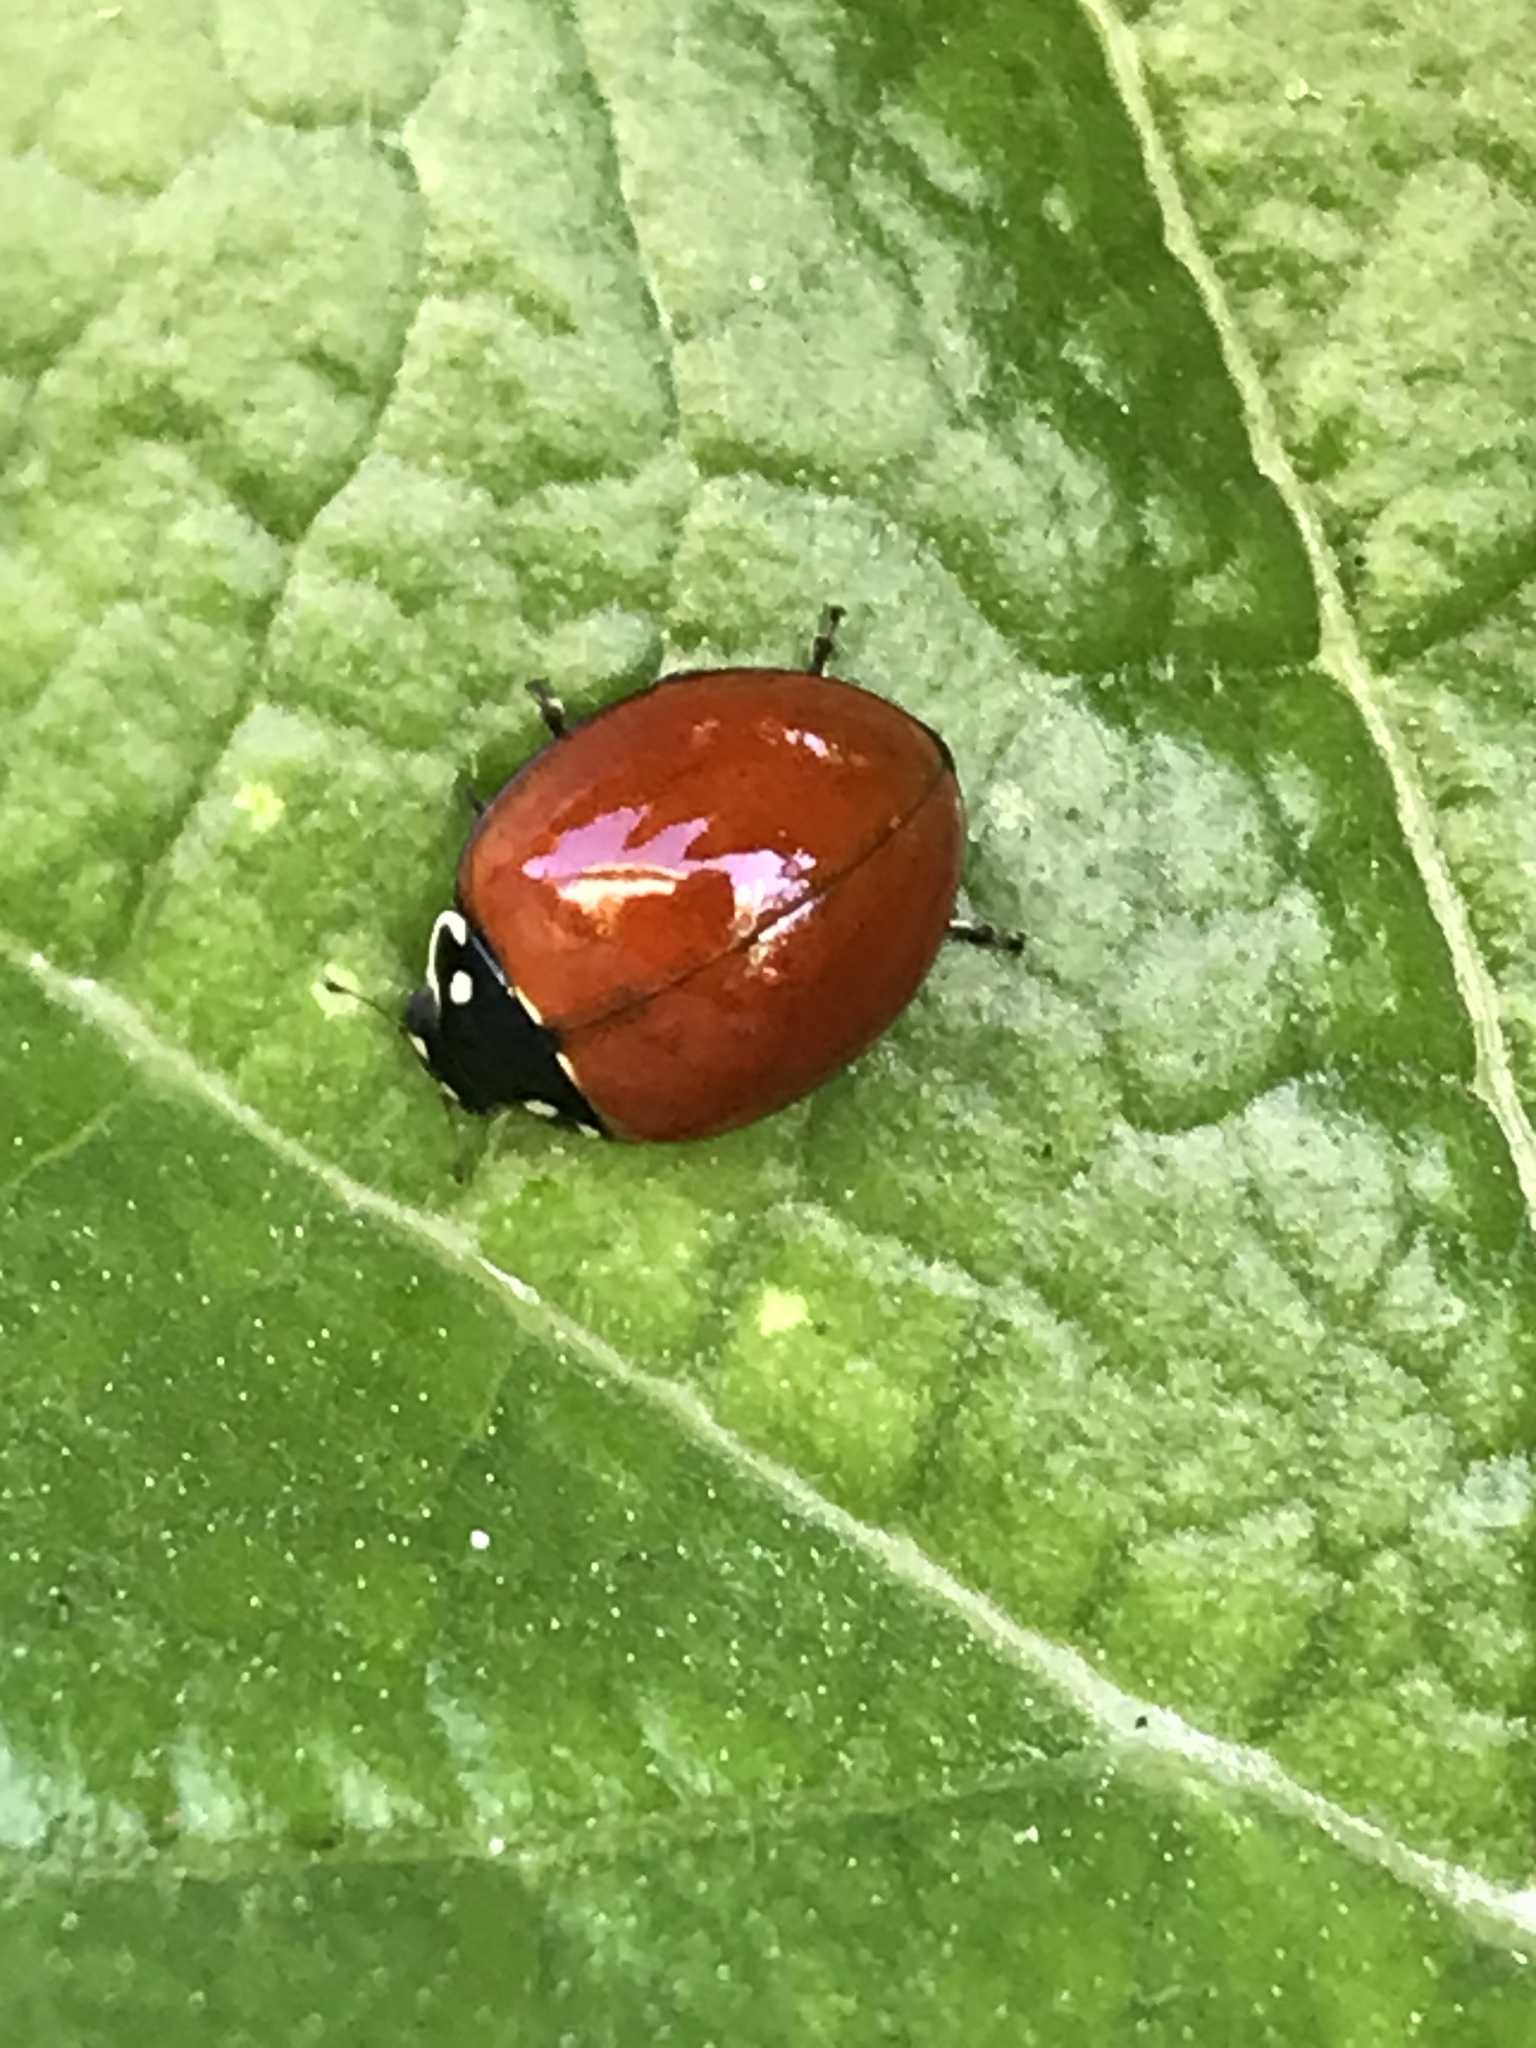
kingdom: Animalia
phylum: Arthropoda
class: Insecta
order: Coleoptera
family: Coccinellidae
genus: Cycloneda
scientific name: Cycloneda sanguinea
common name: Ladybird beetle
